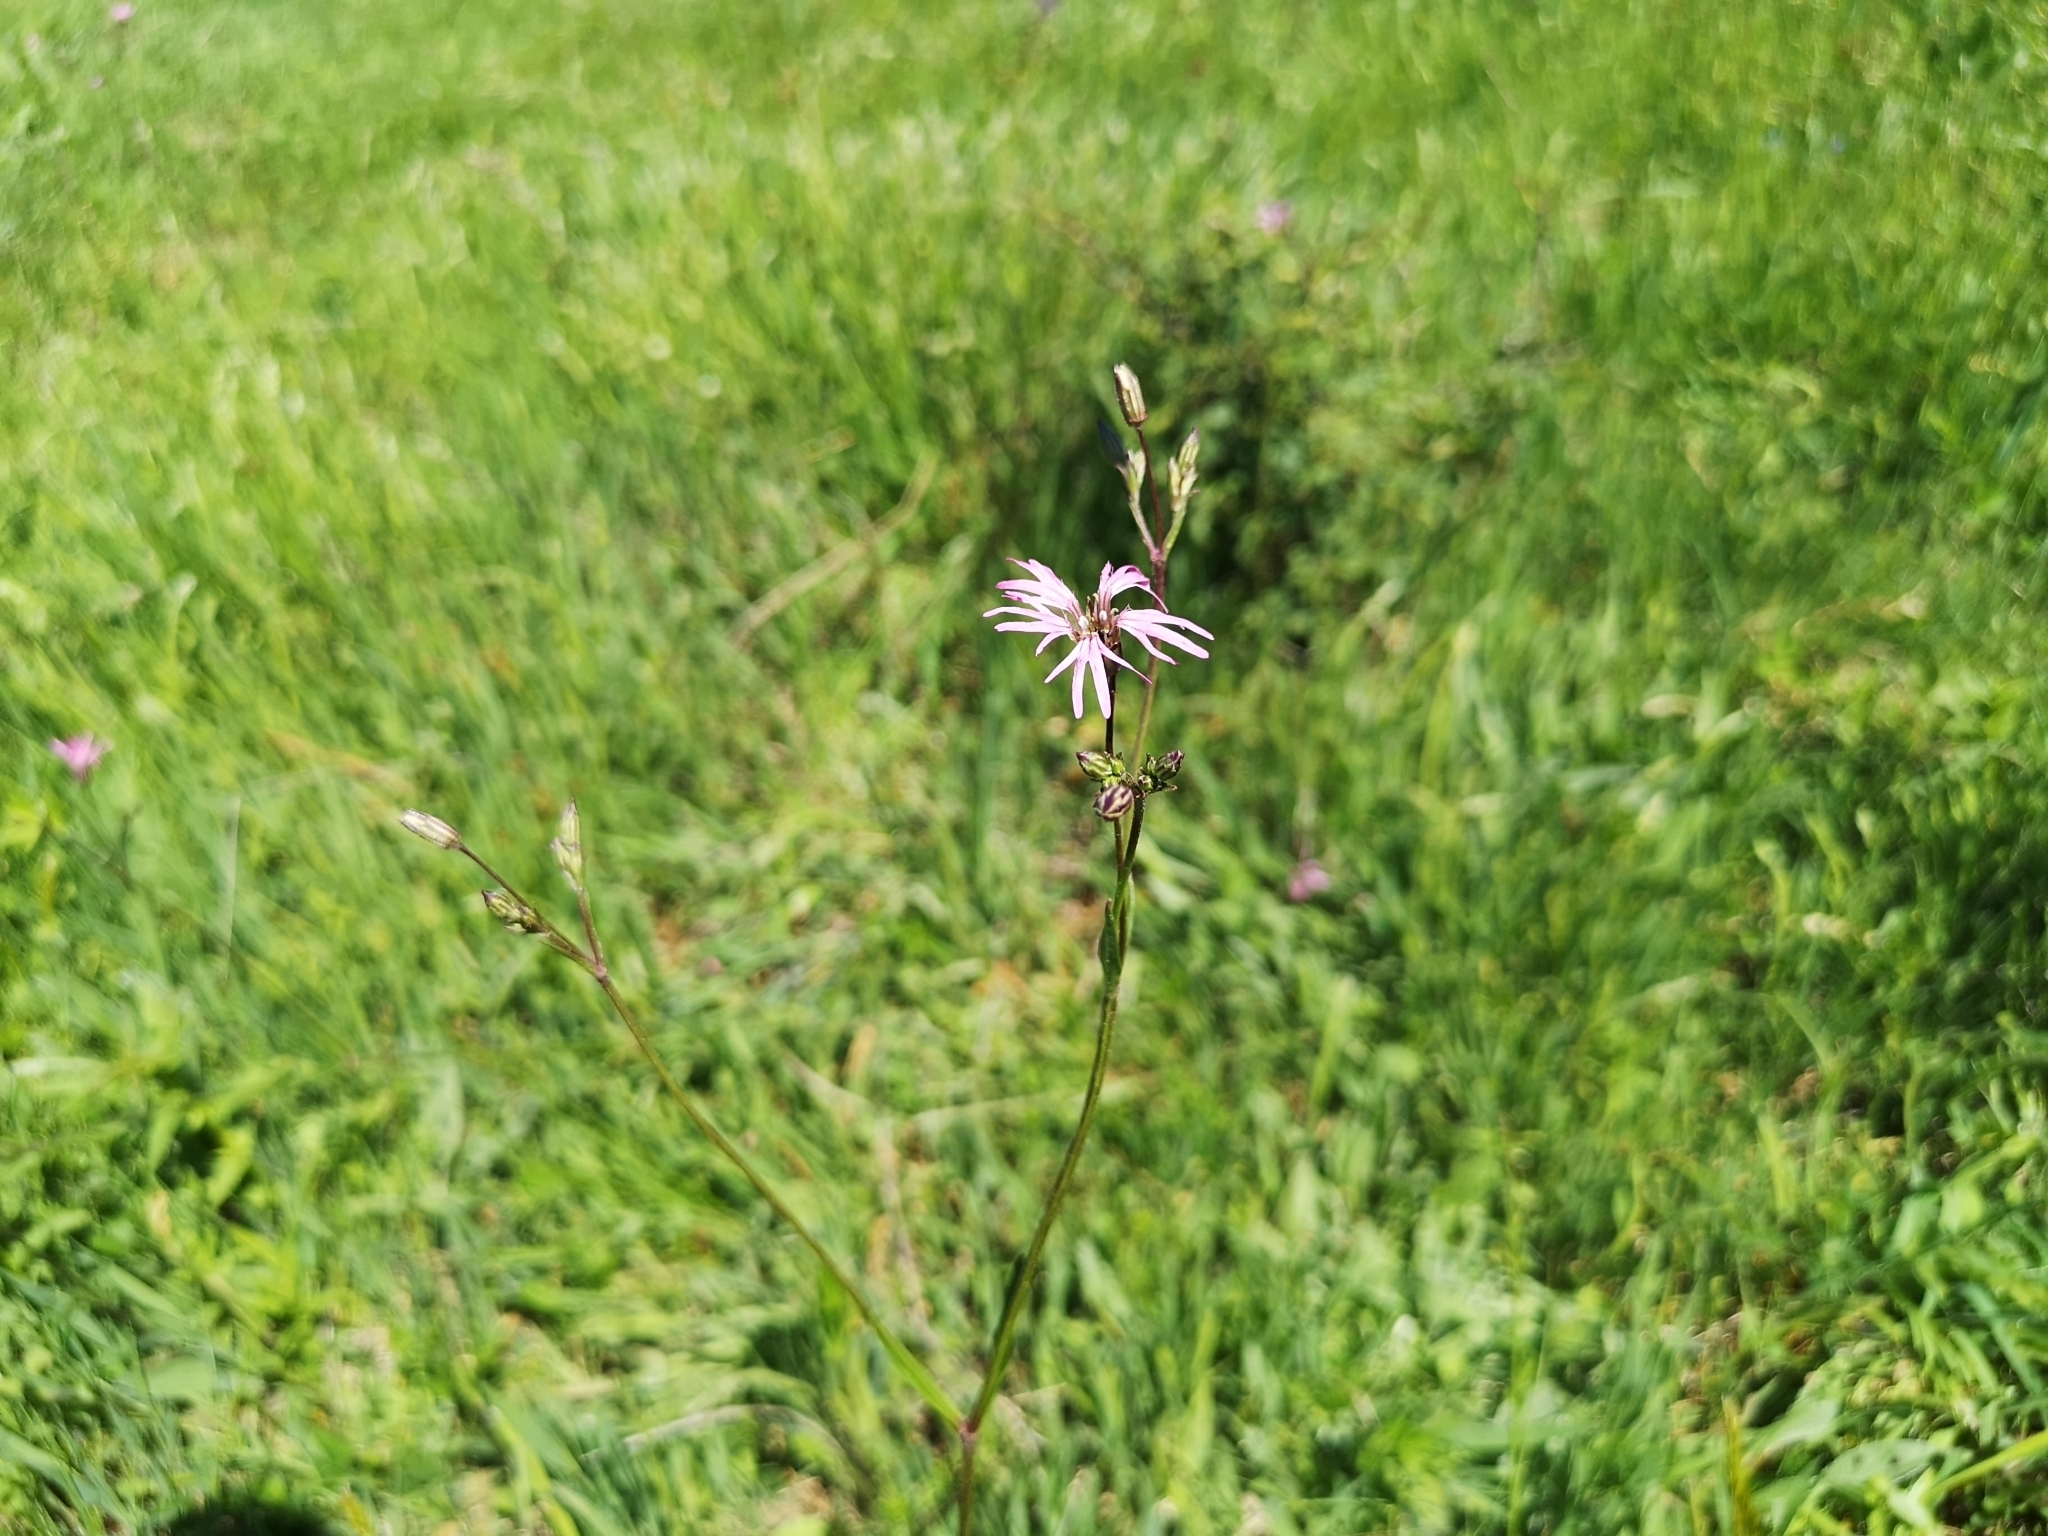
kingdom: Plantae
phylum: Tracheophyta
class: Magnoliopsida
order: Caryophyllales
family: Caryophyllaceae
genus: Silene
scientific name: Silene flos-cuculi
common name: Ragged-robin
